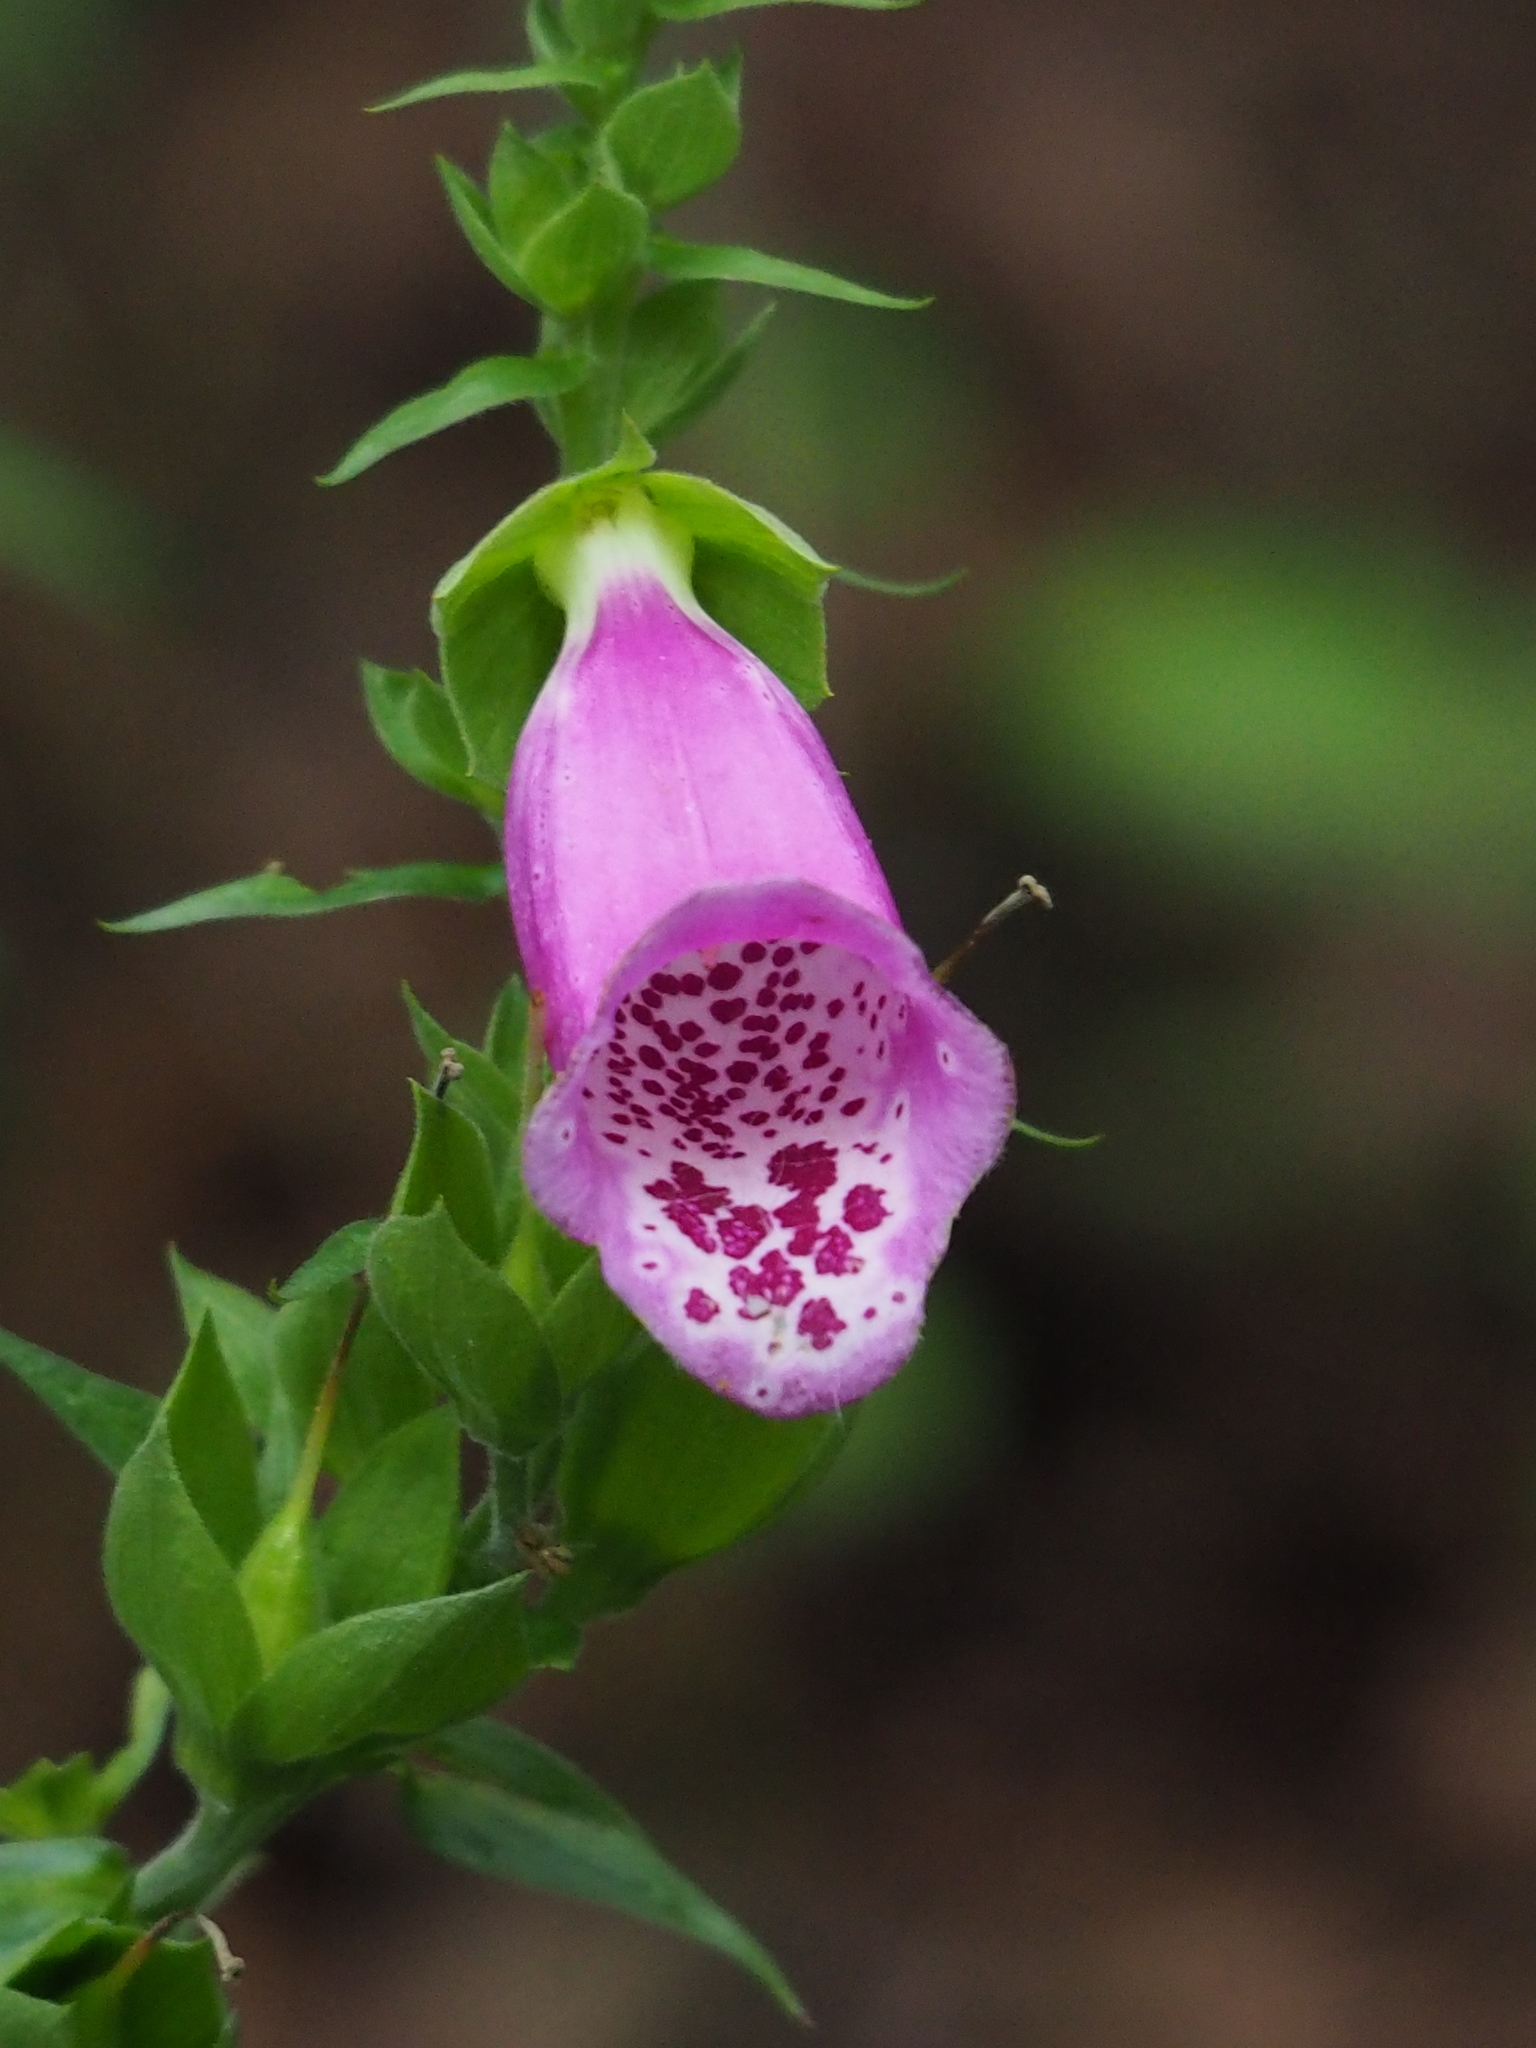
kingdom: Plantae
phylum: Tracheophyta
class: Magnoliopsida
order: Lamiales
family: Plantaginaceae
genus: Digitalis
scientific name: Digitalis purpurea
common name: Foxglove
